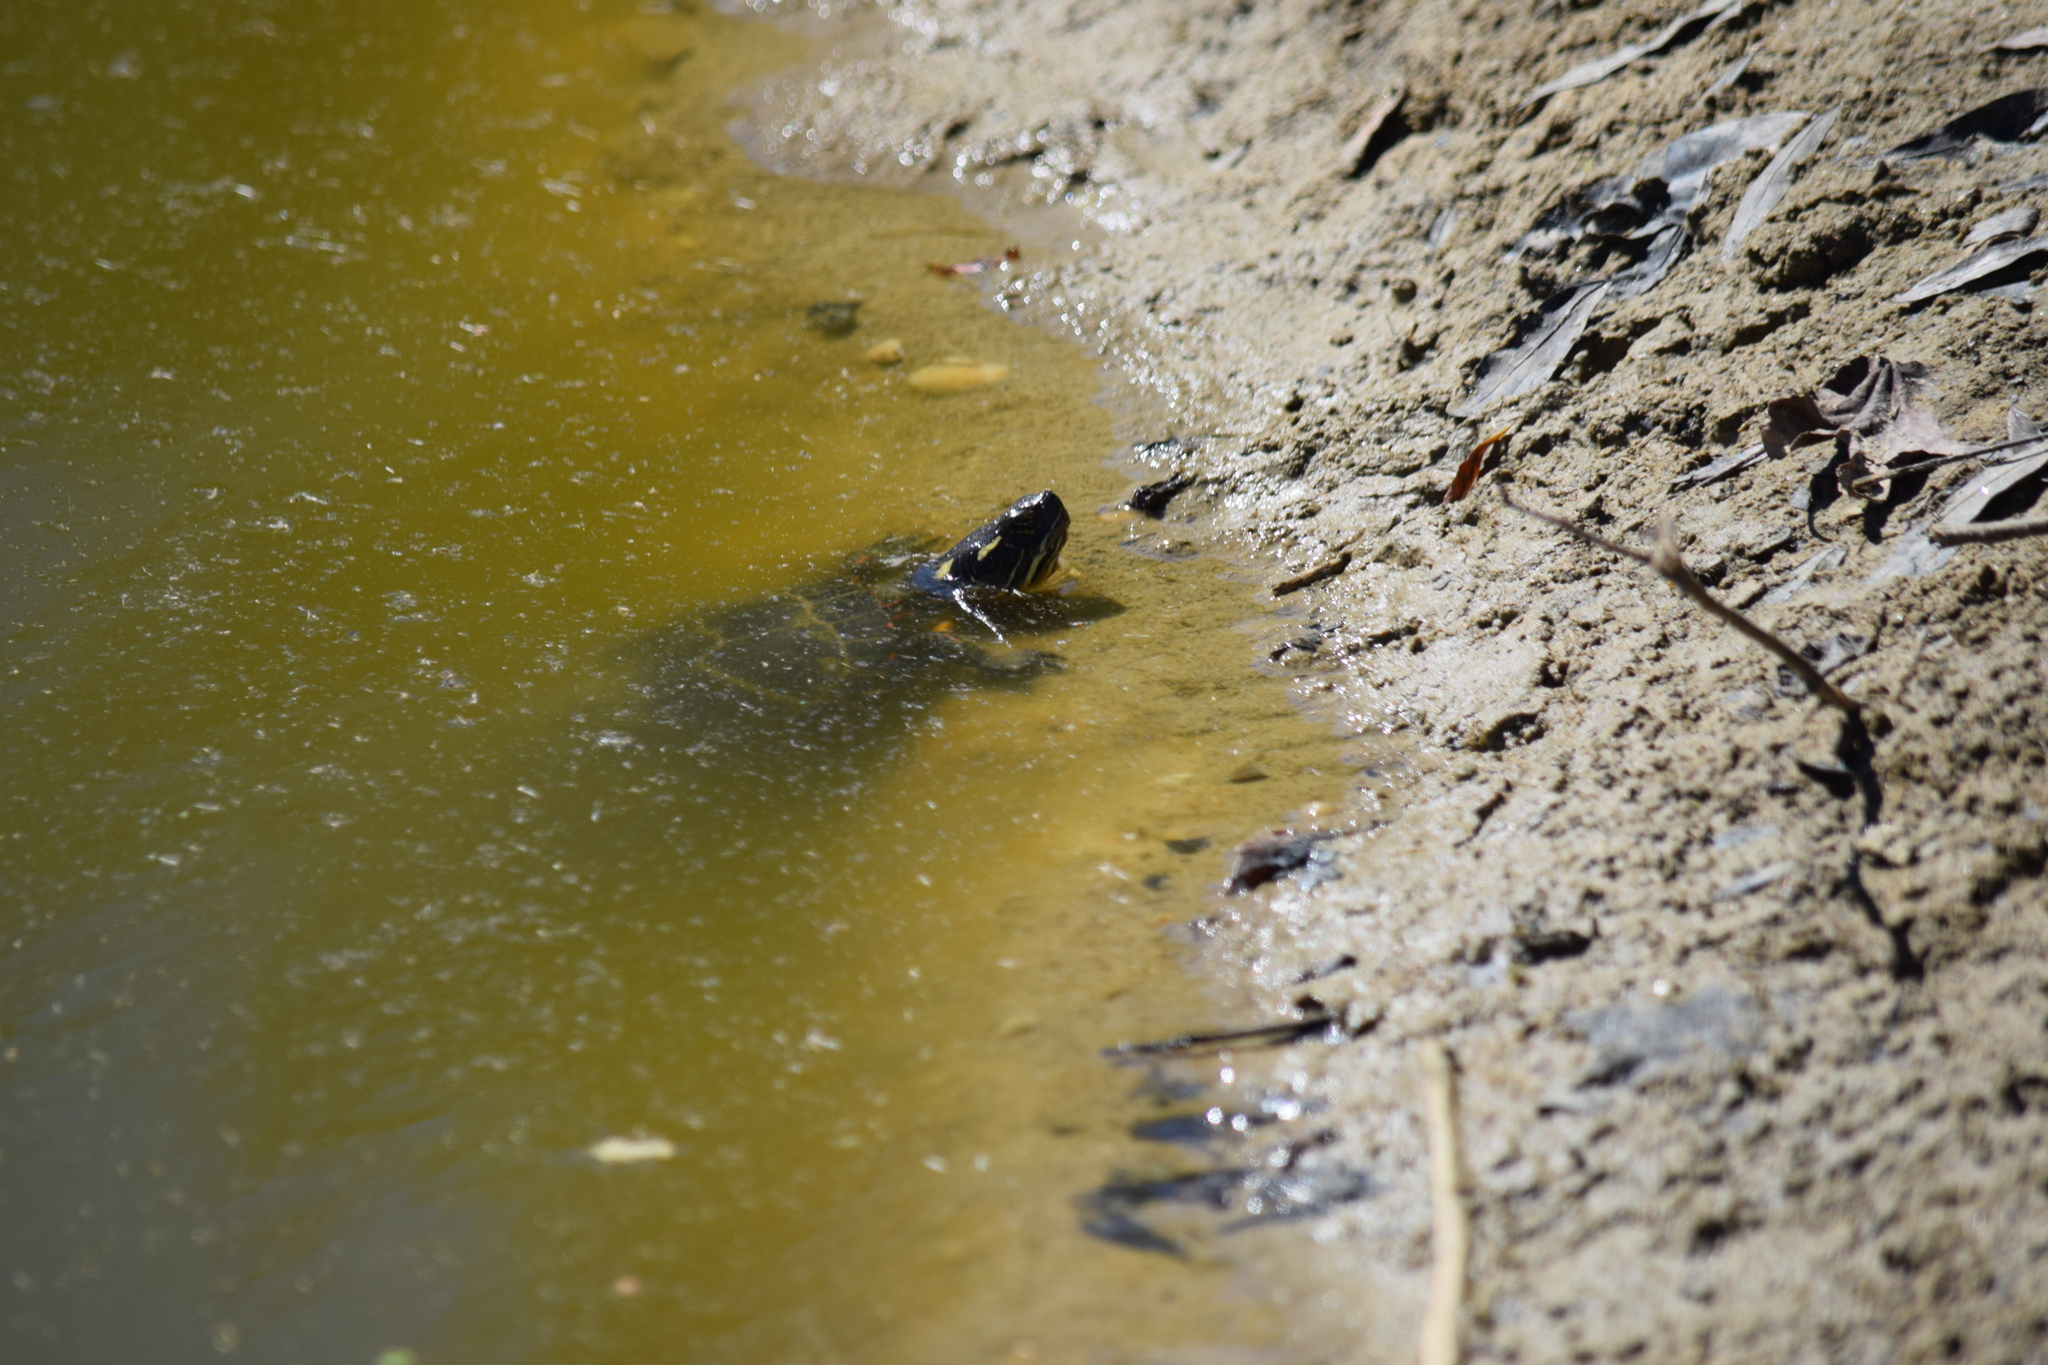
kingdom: Animalia
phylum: Chordata
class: Testudines
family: Emydidae
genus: Chrysemys
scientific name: Chrysemys picta
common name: Painted turtle
